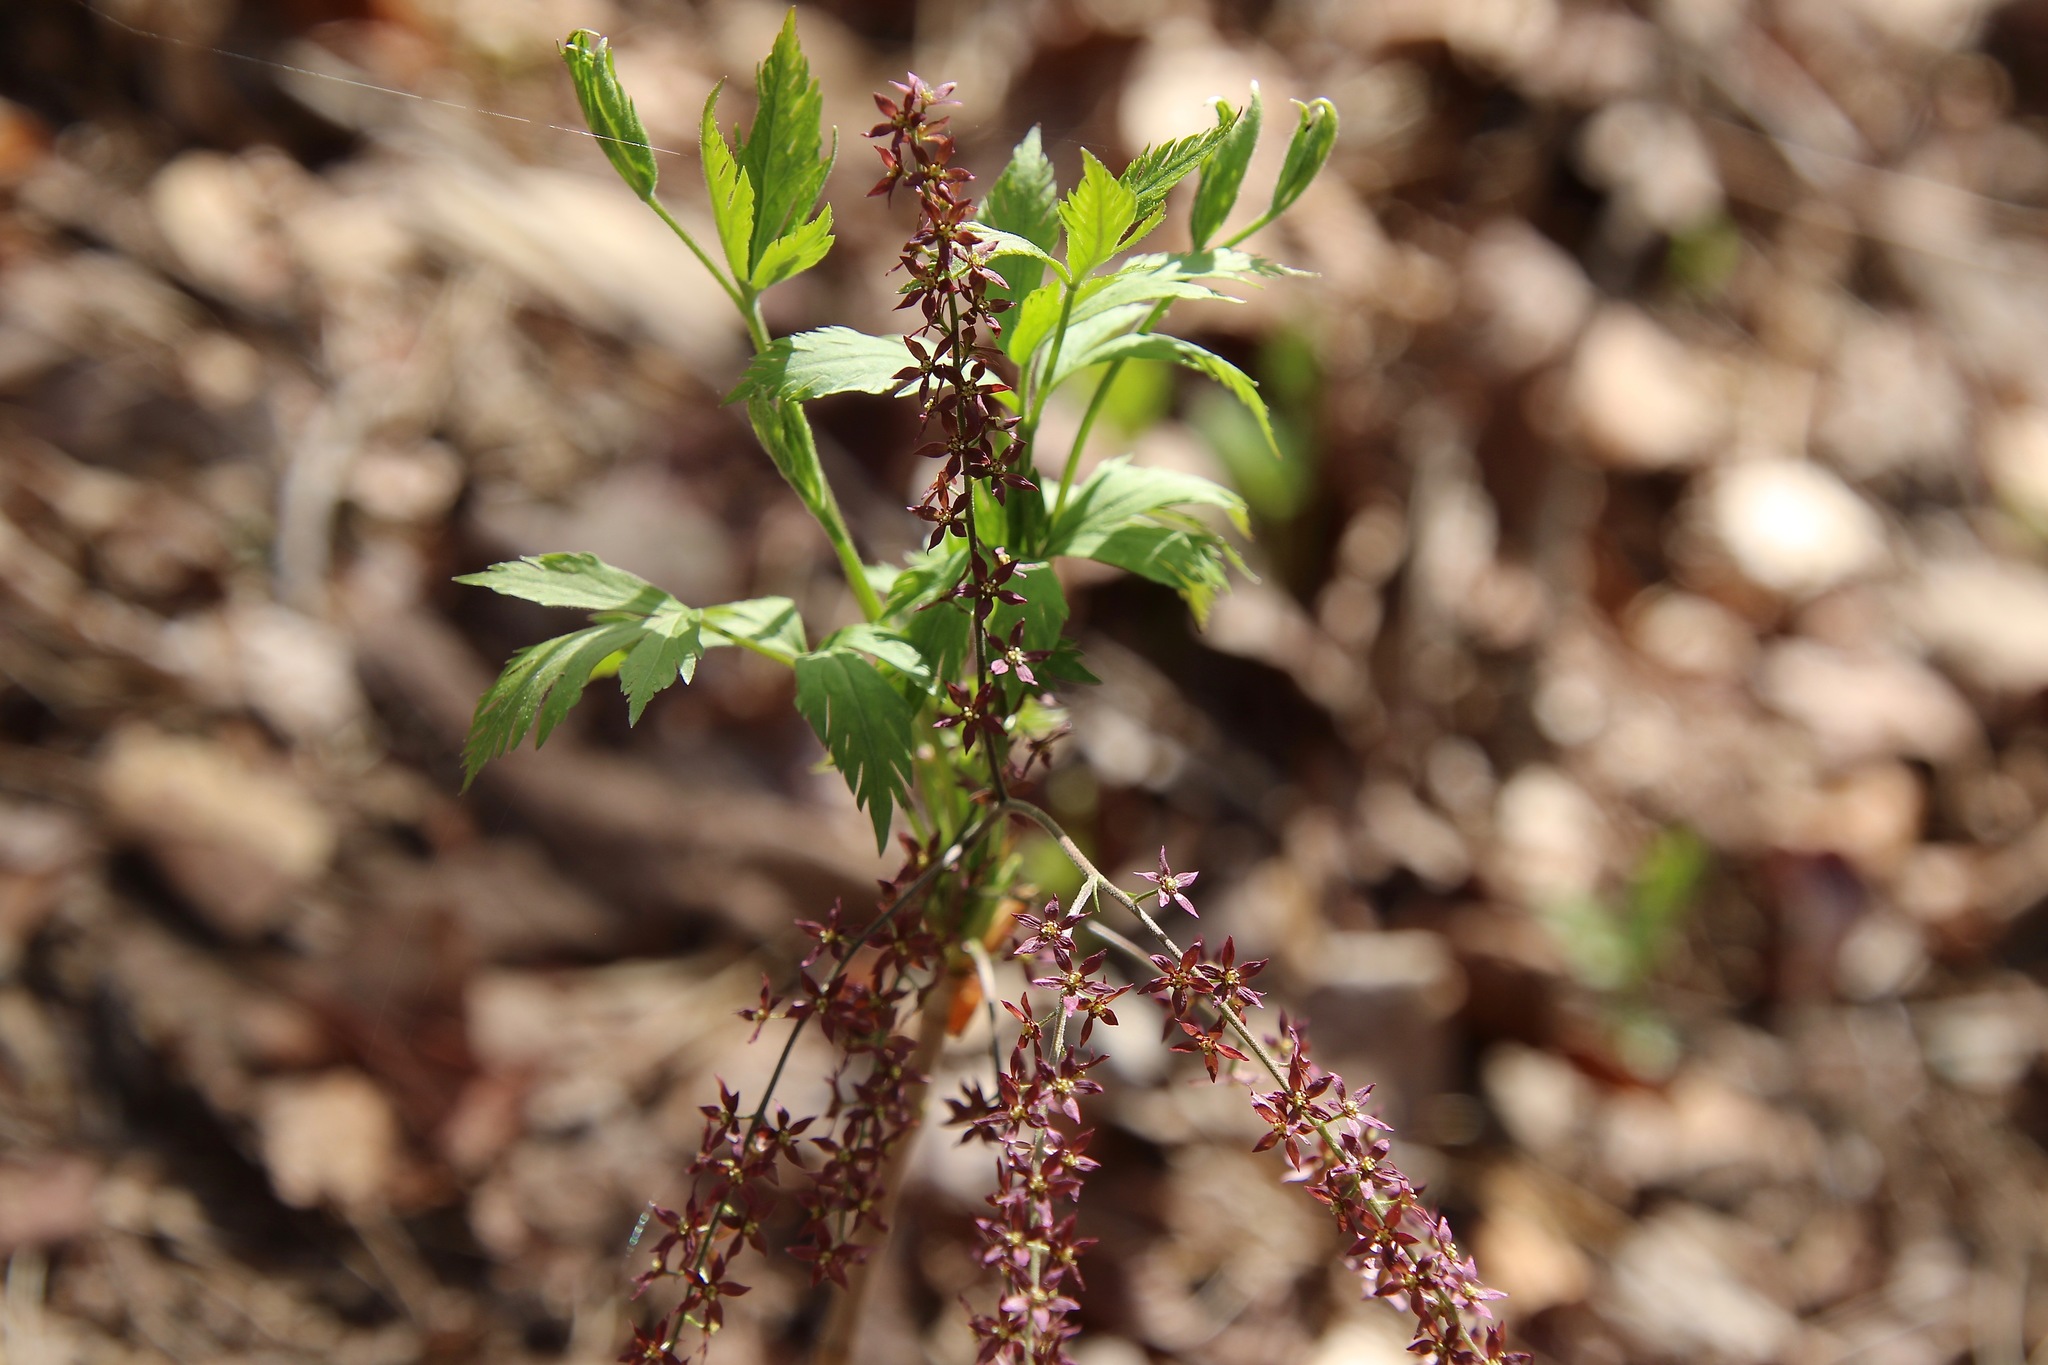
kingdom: Plantae
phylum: Tracheophyta
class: Magnoliopsida
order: Ranunculales
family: Ranunculaceae
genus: Xanthorhiza
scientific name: Xanthorhiza simplicissima
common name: Yellowroot
